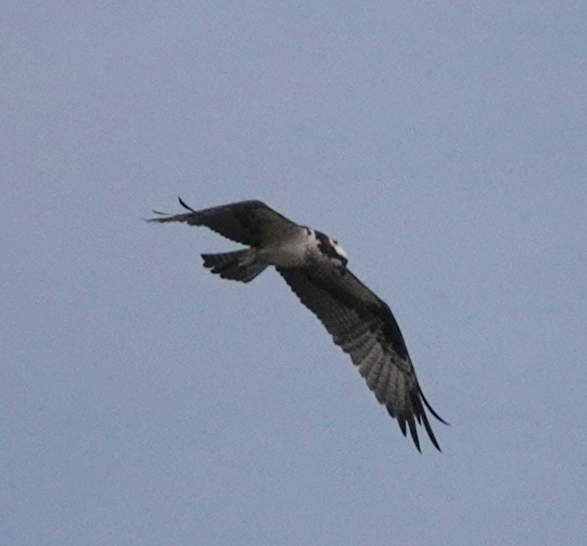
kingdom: Animalia
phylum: Chordata
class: Aves
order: Accipitriformes
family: Pandionidae
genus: Pandion
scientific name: Pandion haliaetus
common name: Osprey
